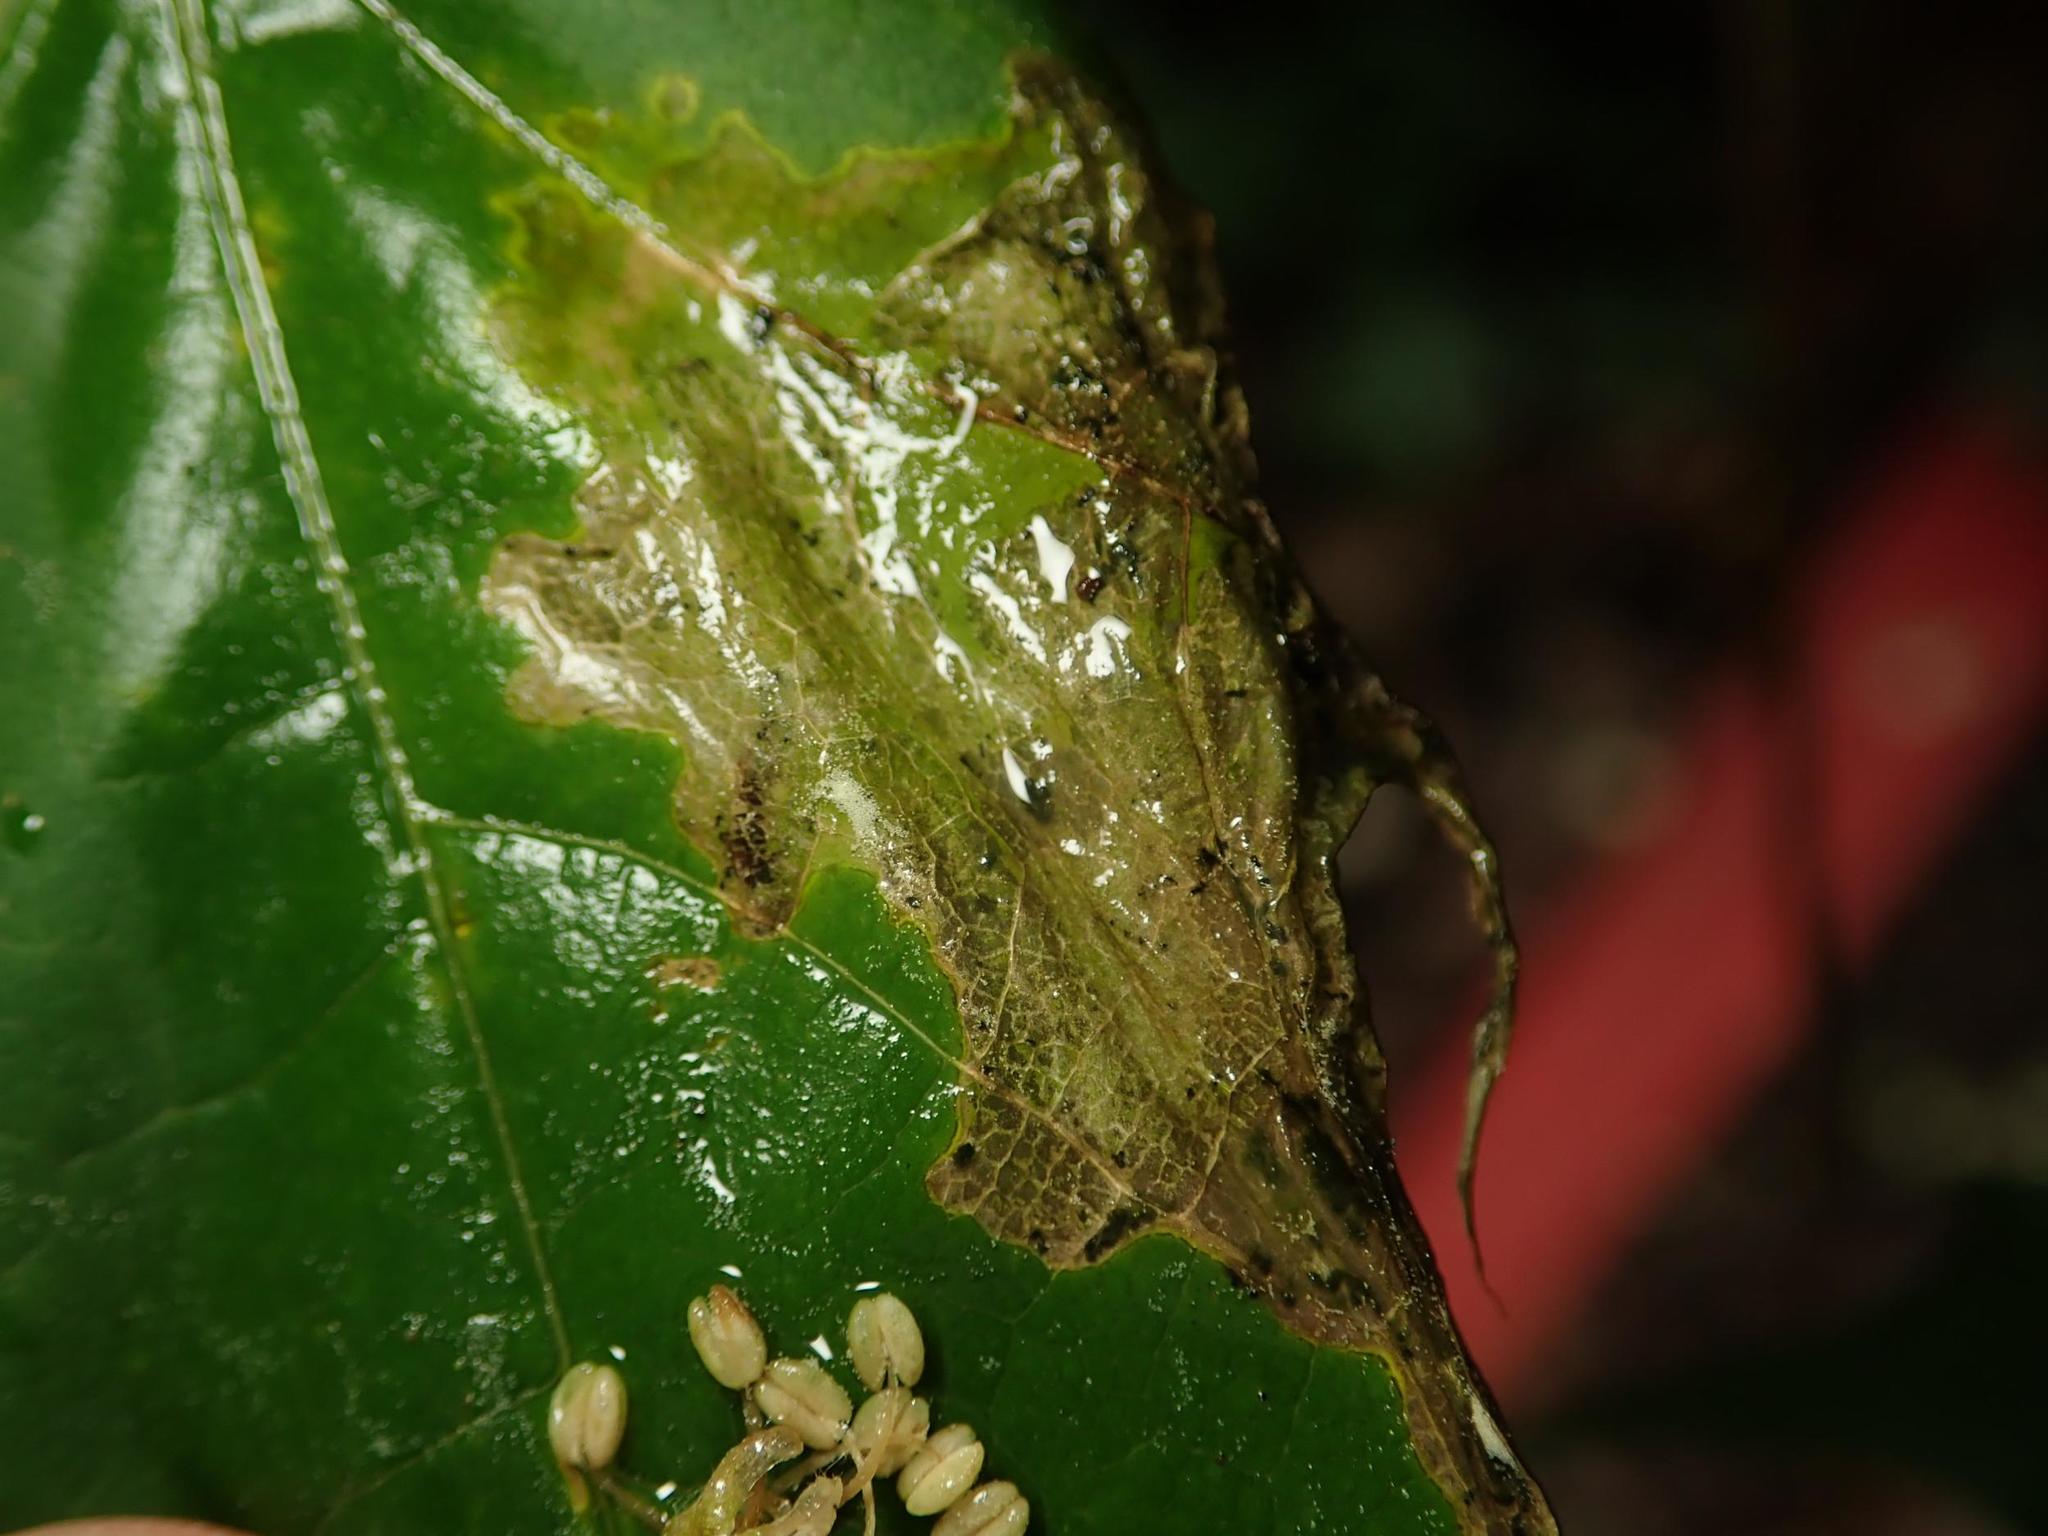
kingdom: Animalia
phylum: Arthropoda
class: Insecta
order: Hymenoptera
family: Tenthredinidae
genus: Hinatara
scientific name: Hinatara recta
